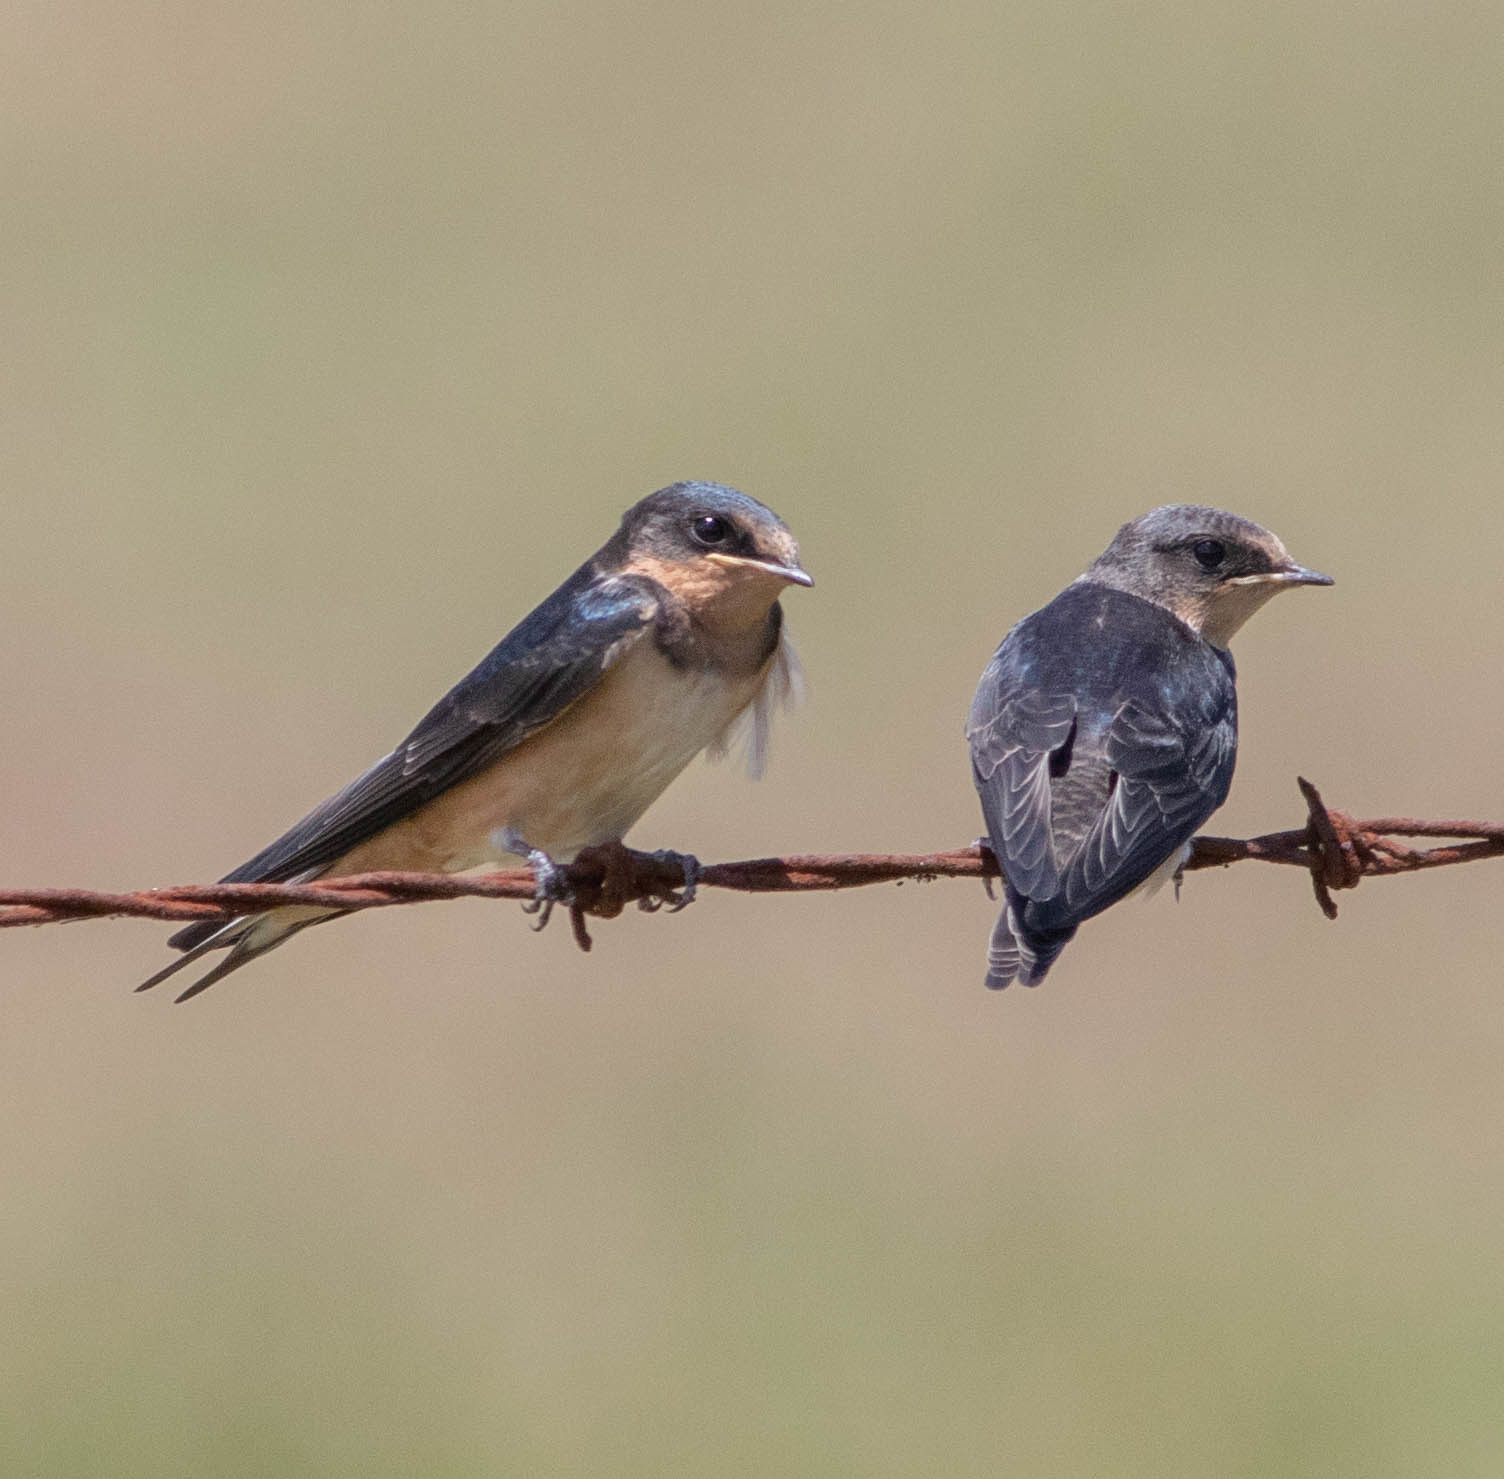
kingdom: Animalia
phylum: Chordata
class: Aves
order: Passeriformes
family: Hirundinidae
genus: Hirundo
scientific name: Hirundo rustica
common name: Barn swallow
